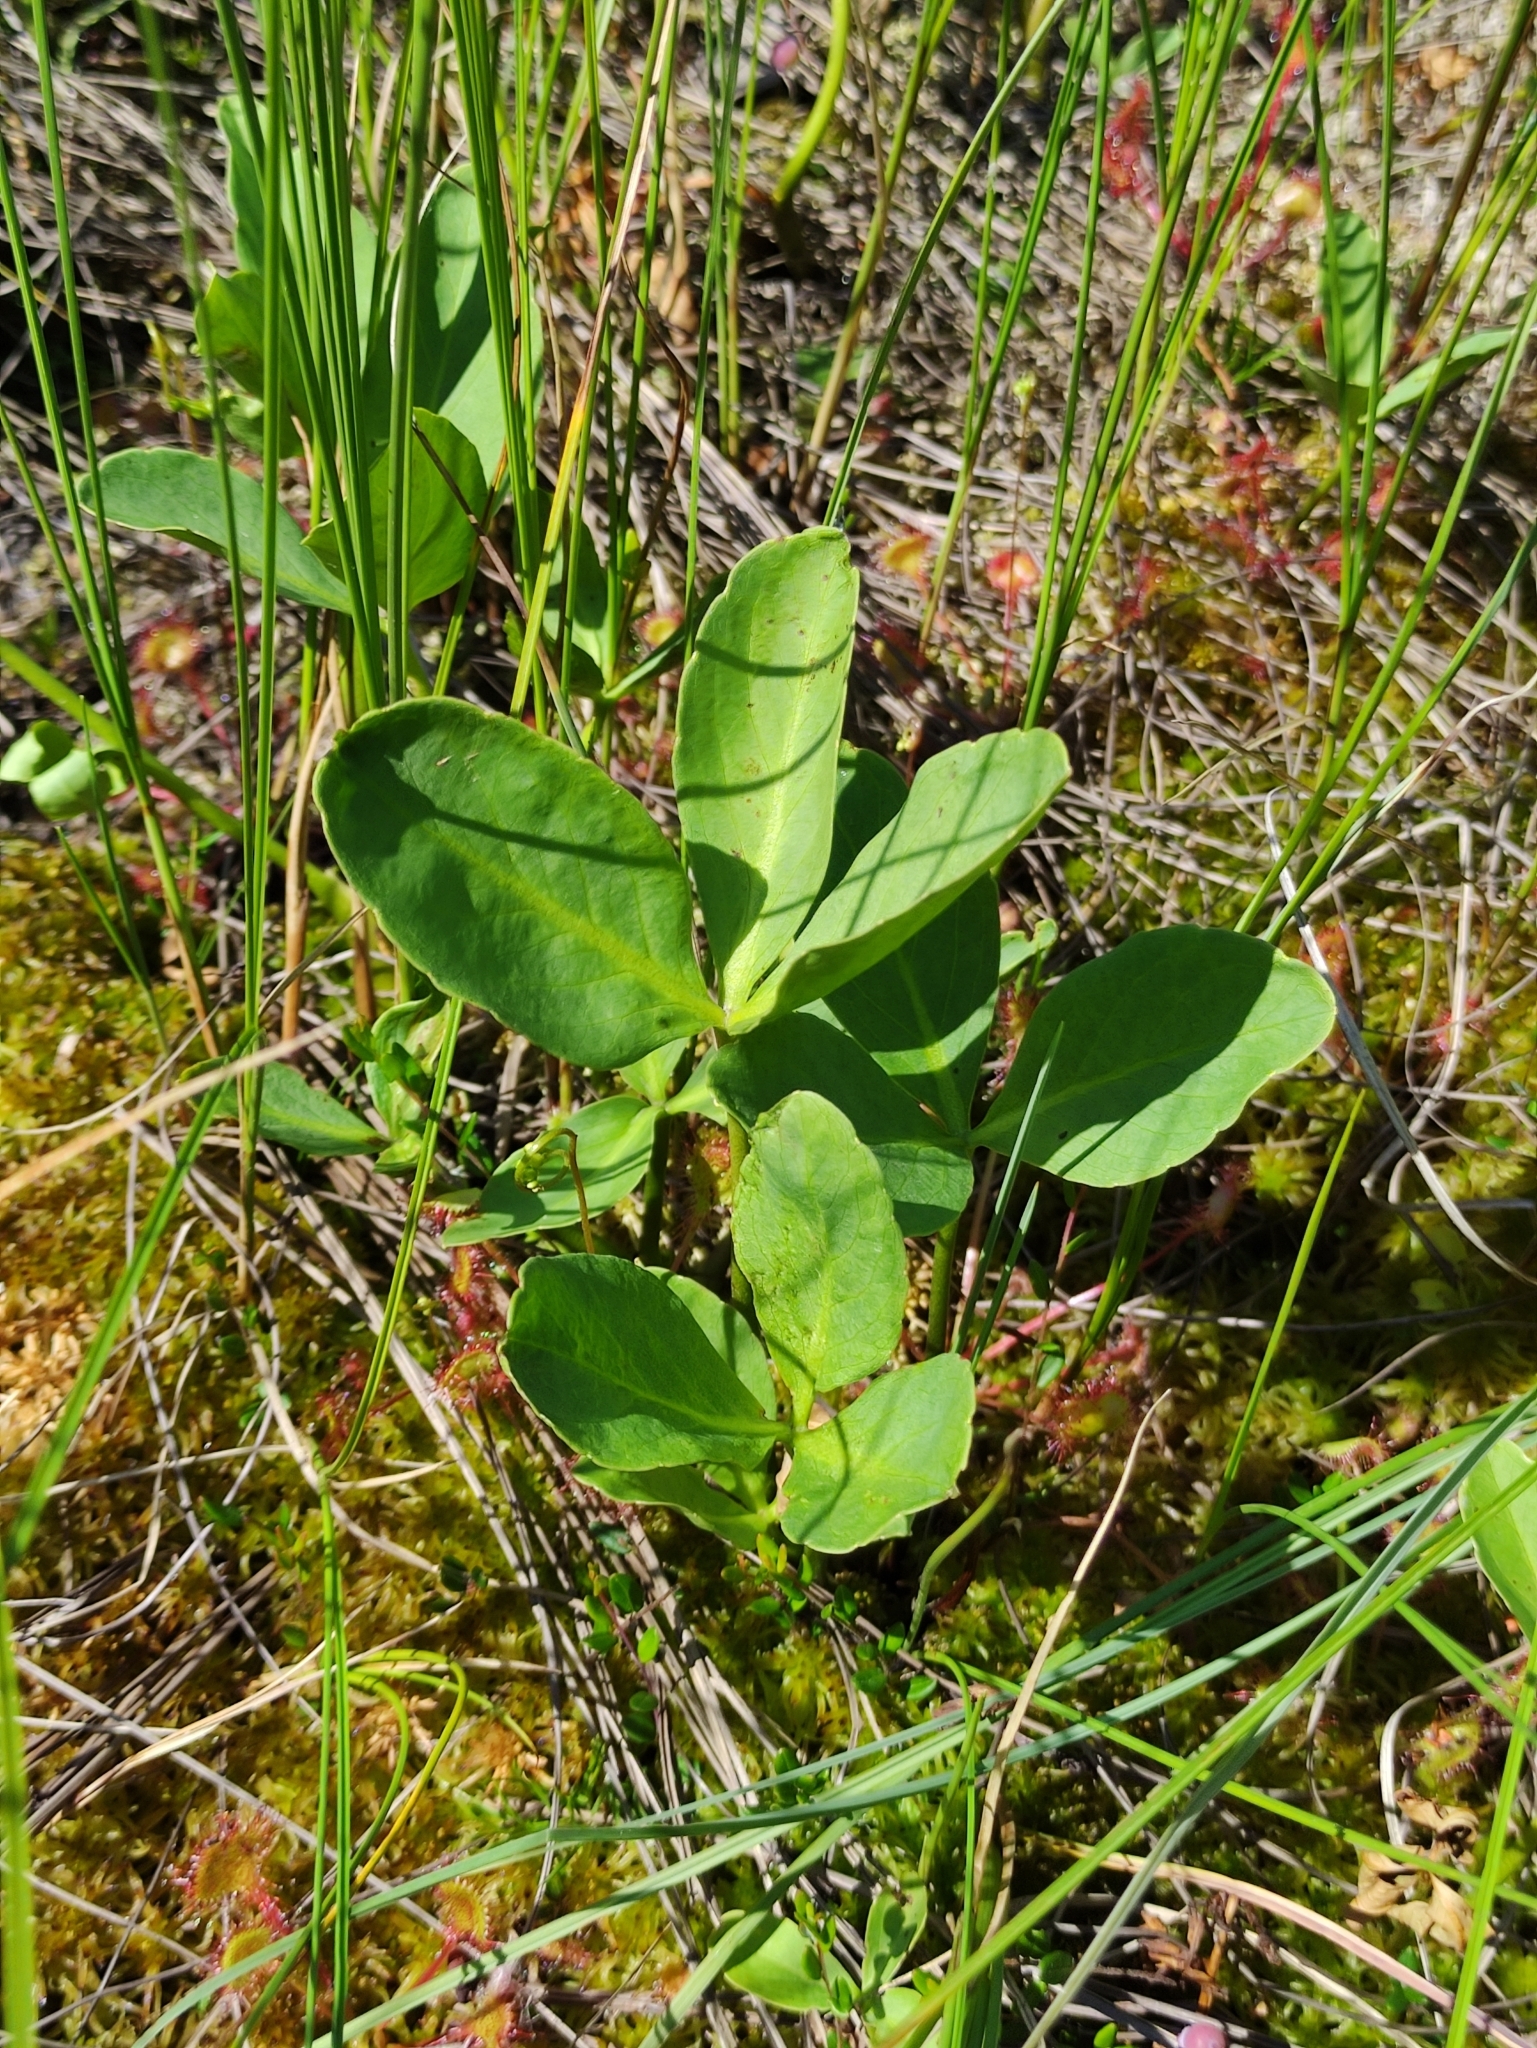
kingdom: Plantae
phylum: Tracheophyta
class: Magnoliopsida
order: Asterales
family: Menyanthaceae
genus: Menyanthes
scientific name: Menyanthes trifoliata
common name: Bogbean
